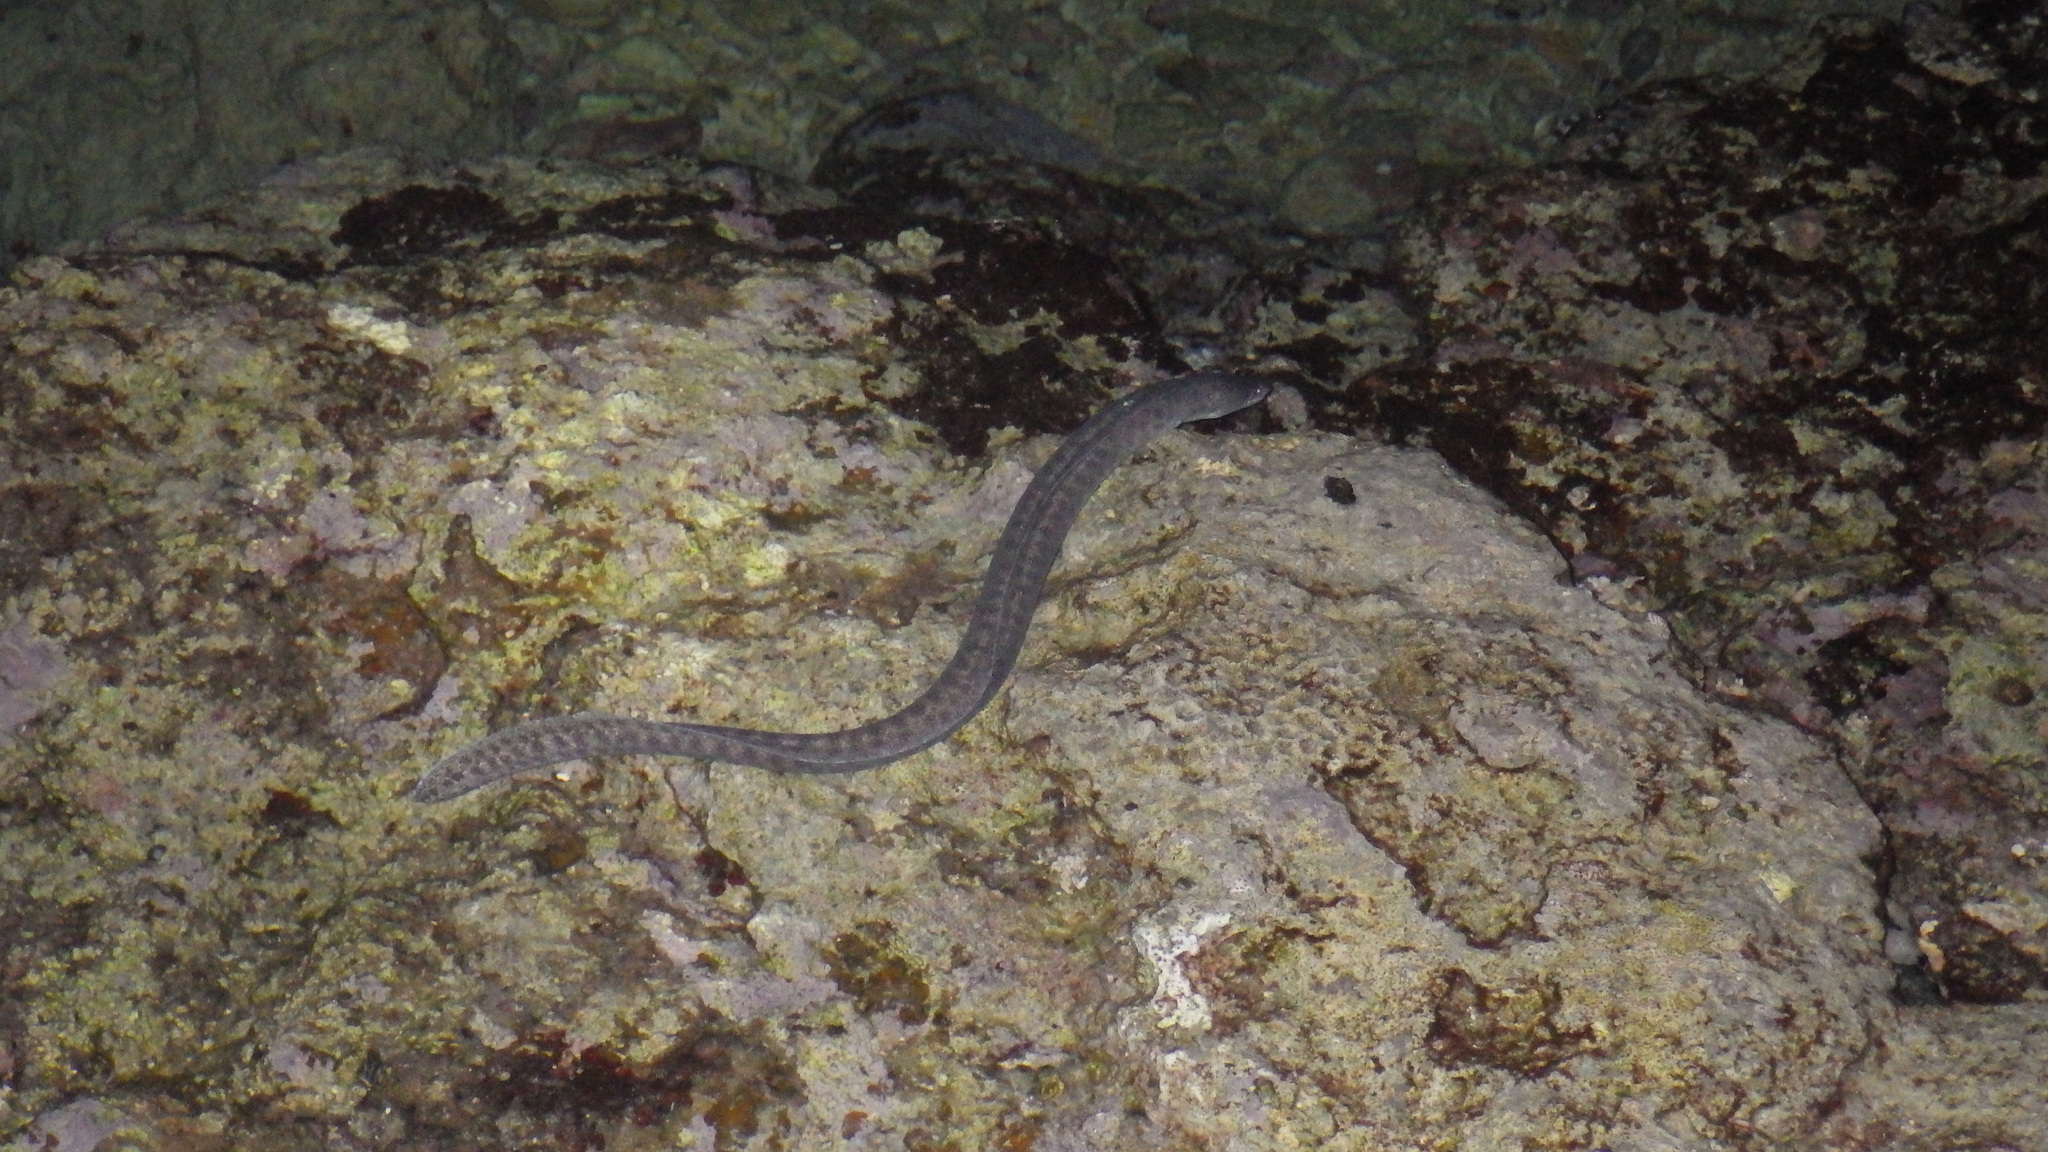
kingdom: Animalia
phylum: Chordata
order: Anguilliformes
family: Muraenidae
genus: Gymnothorax
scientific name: Gymnothorax pictus
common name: Peppered moray
